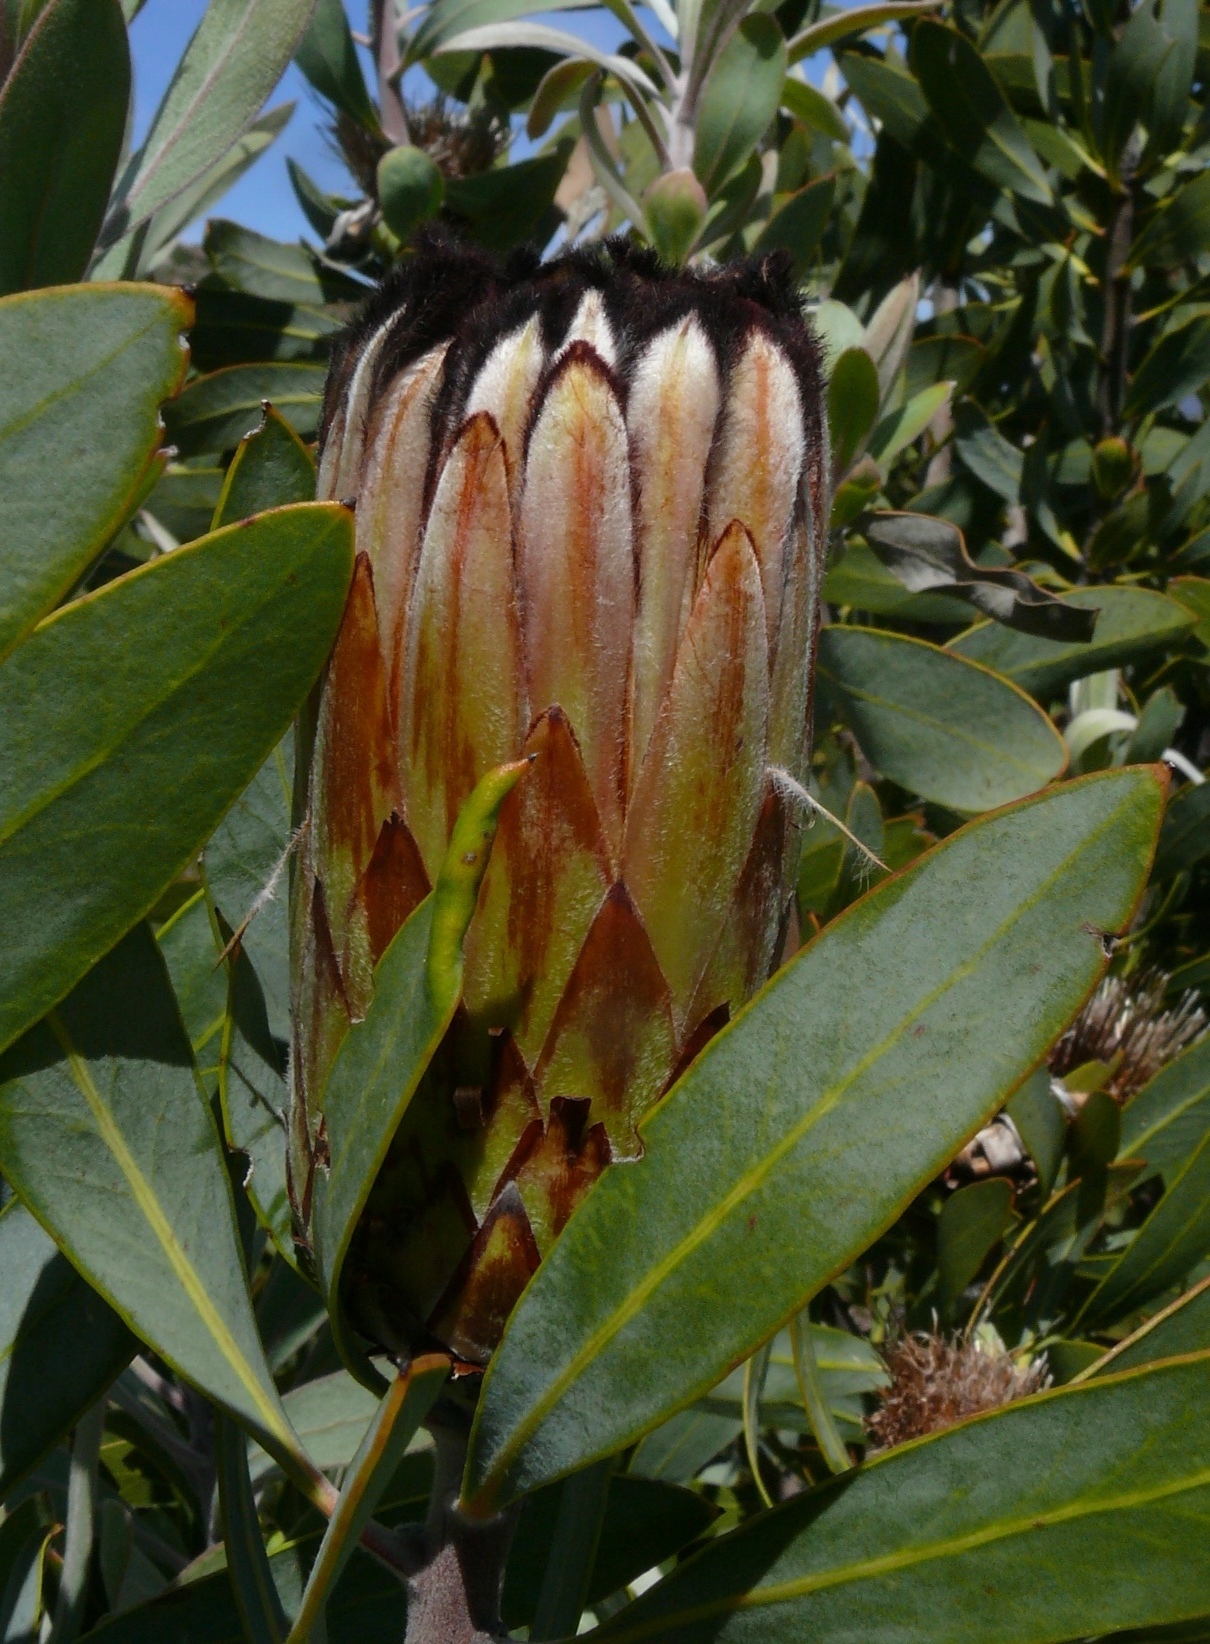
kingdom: Plantae
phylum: Tracheophyta
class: Magnoliopsida
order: Proteales
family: Proteaceae
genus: Protea
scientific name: Protea laurifolia
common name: Grey-leaf sugarbsh
